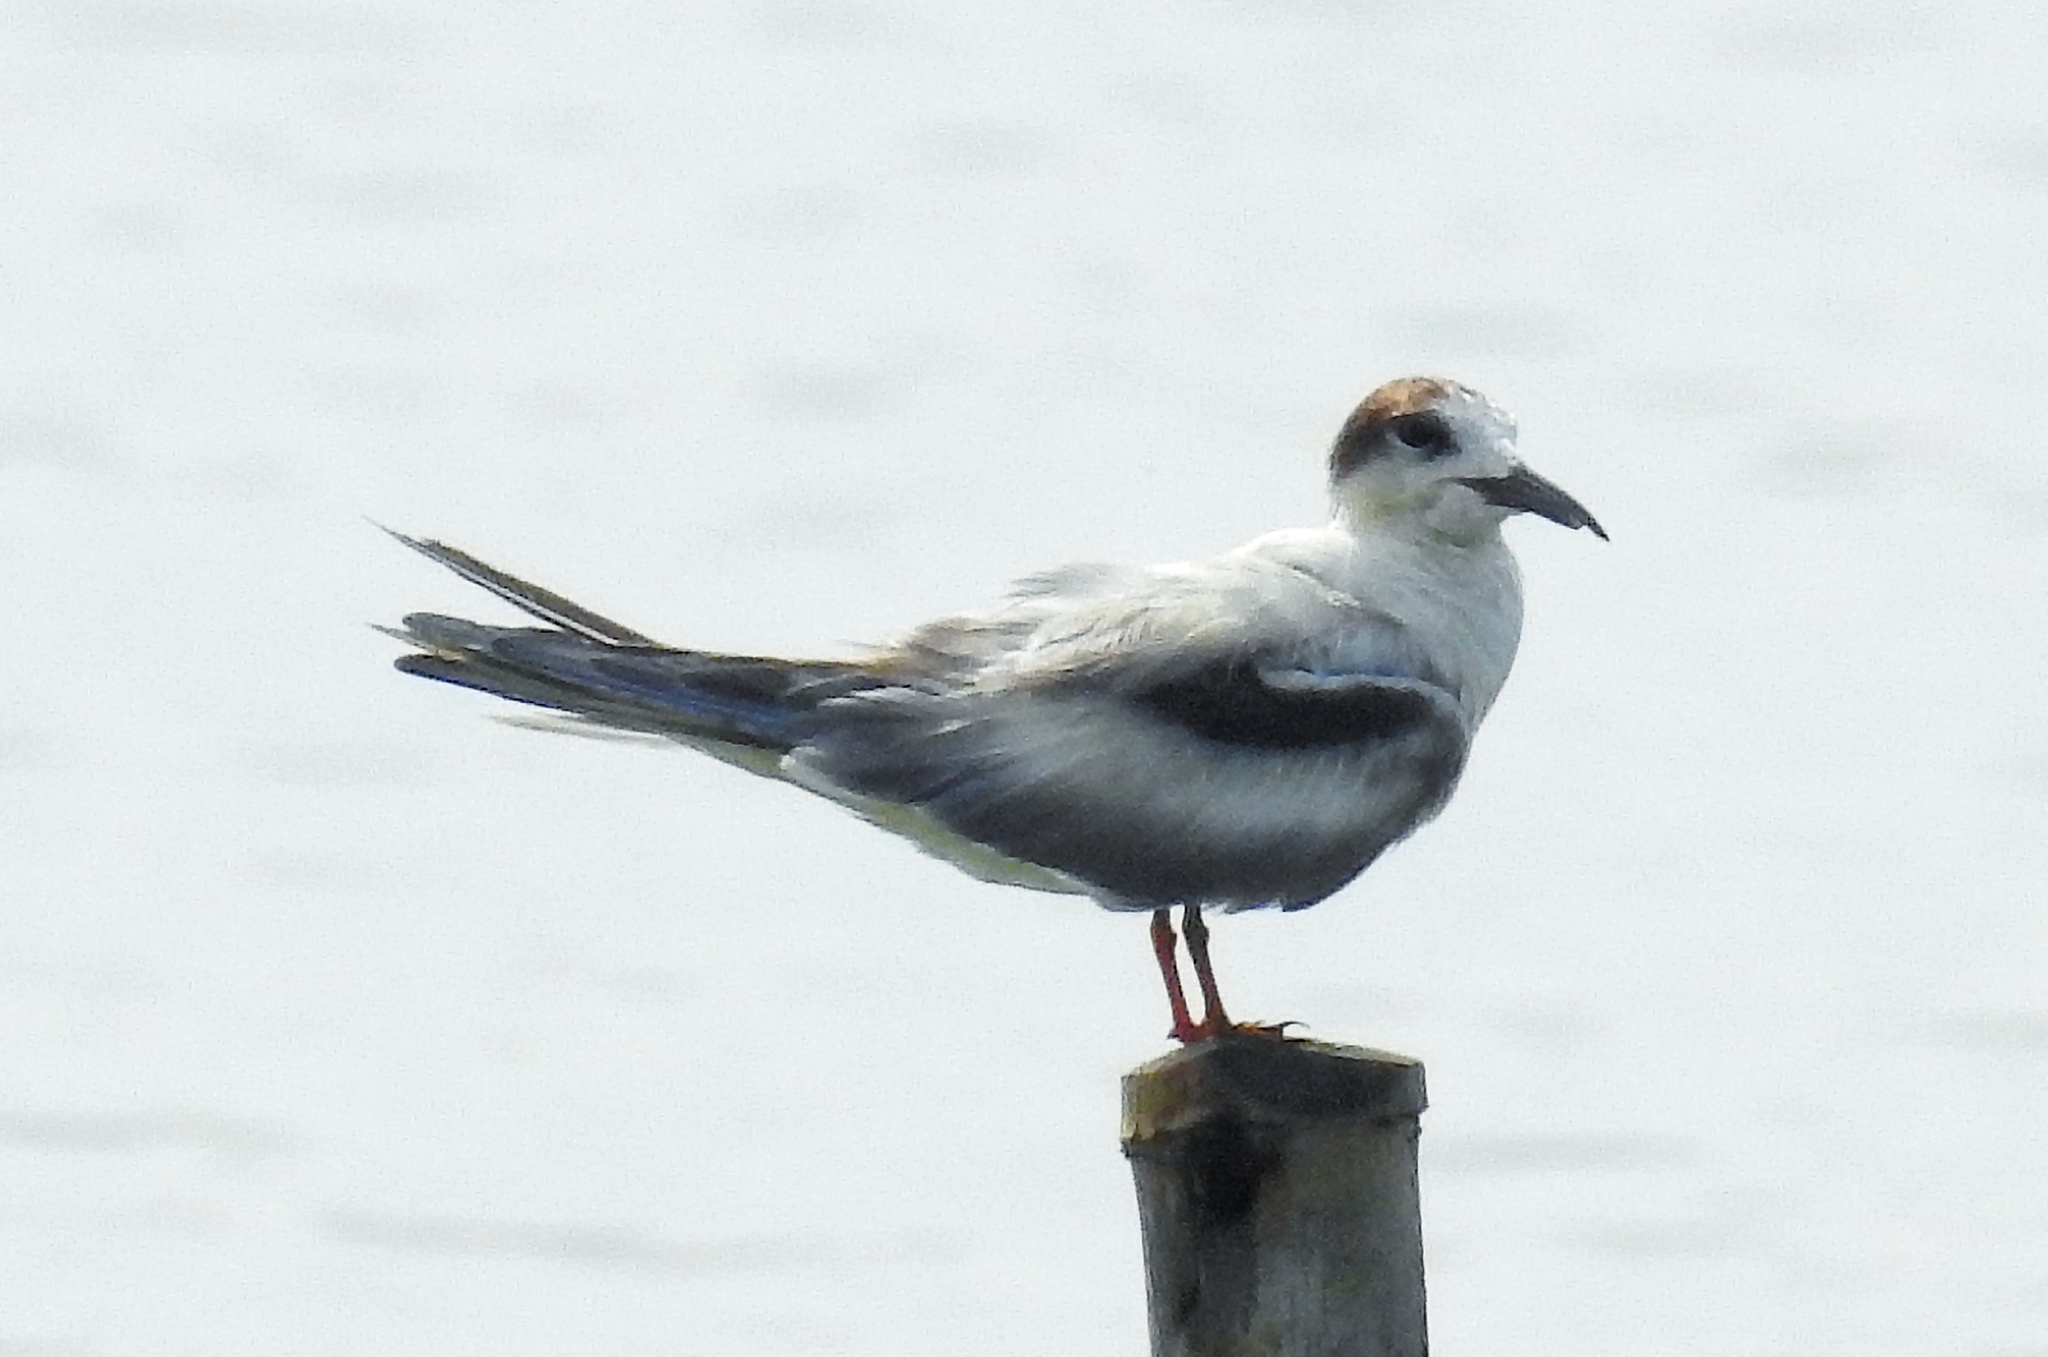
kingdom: Animalia
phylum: Chordata
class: Aves
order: Charadriiformes
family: Laridae
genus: Sterna
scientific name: Sterna hirundo
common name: Common tern
